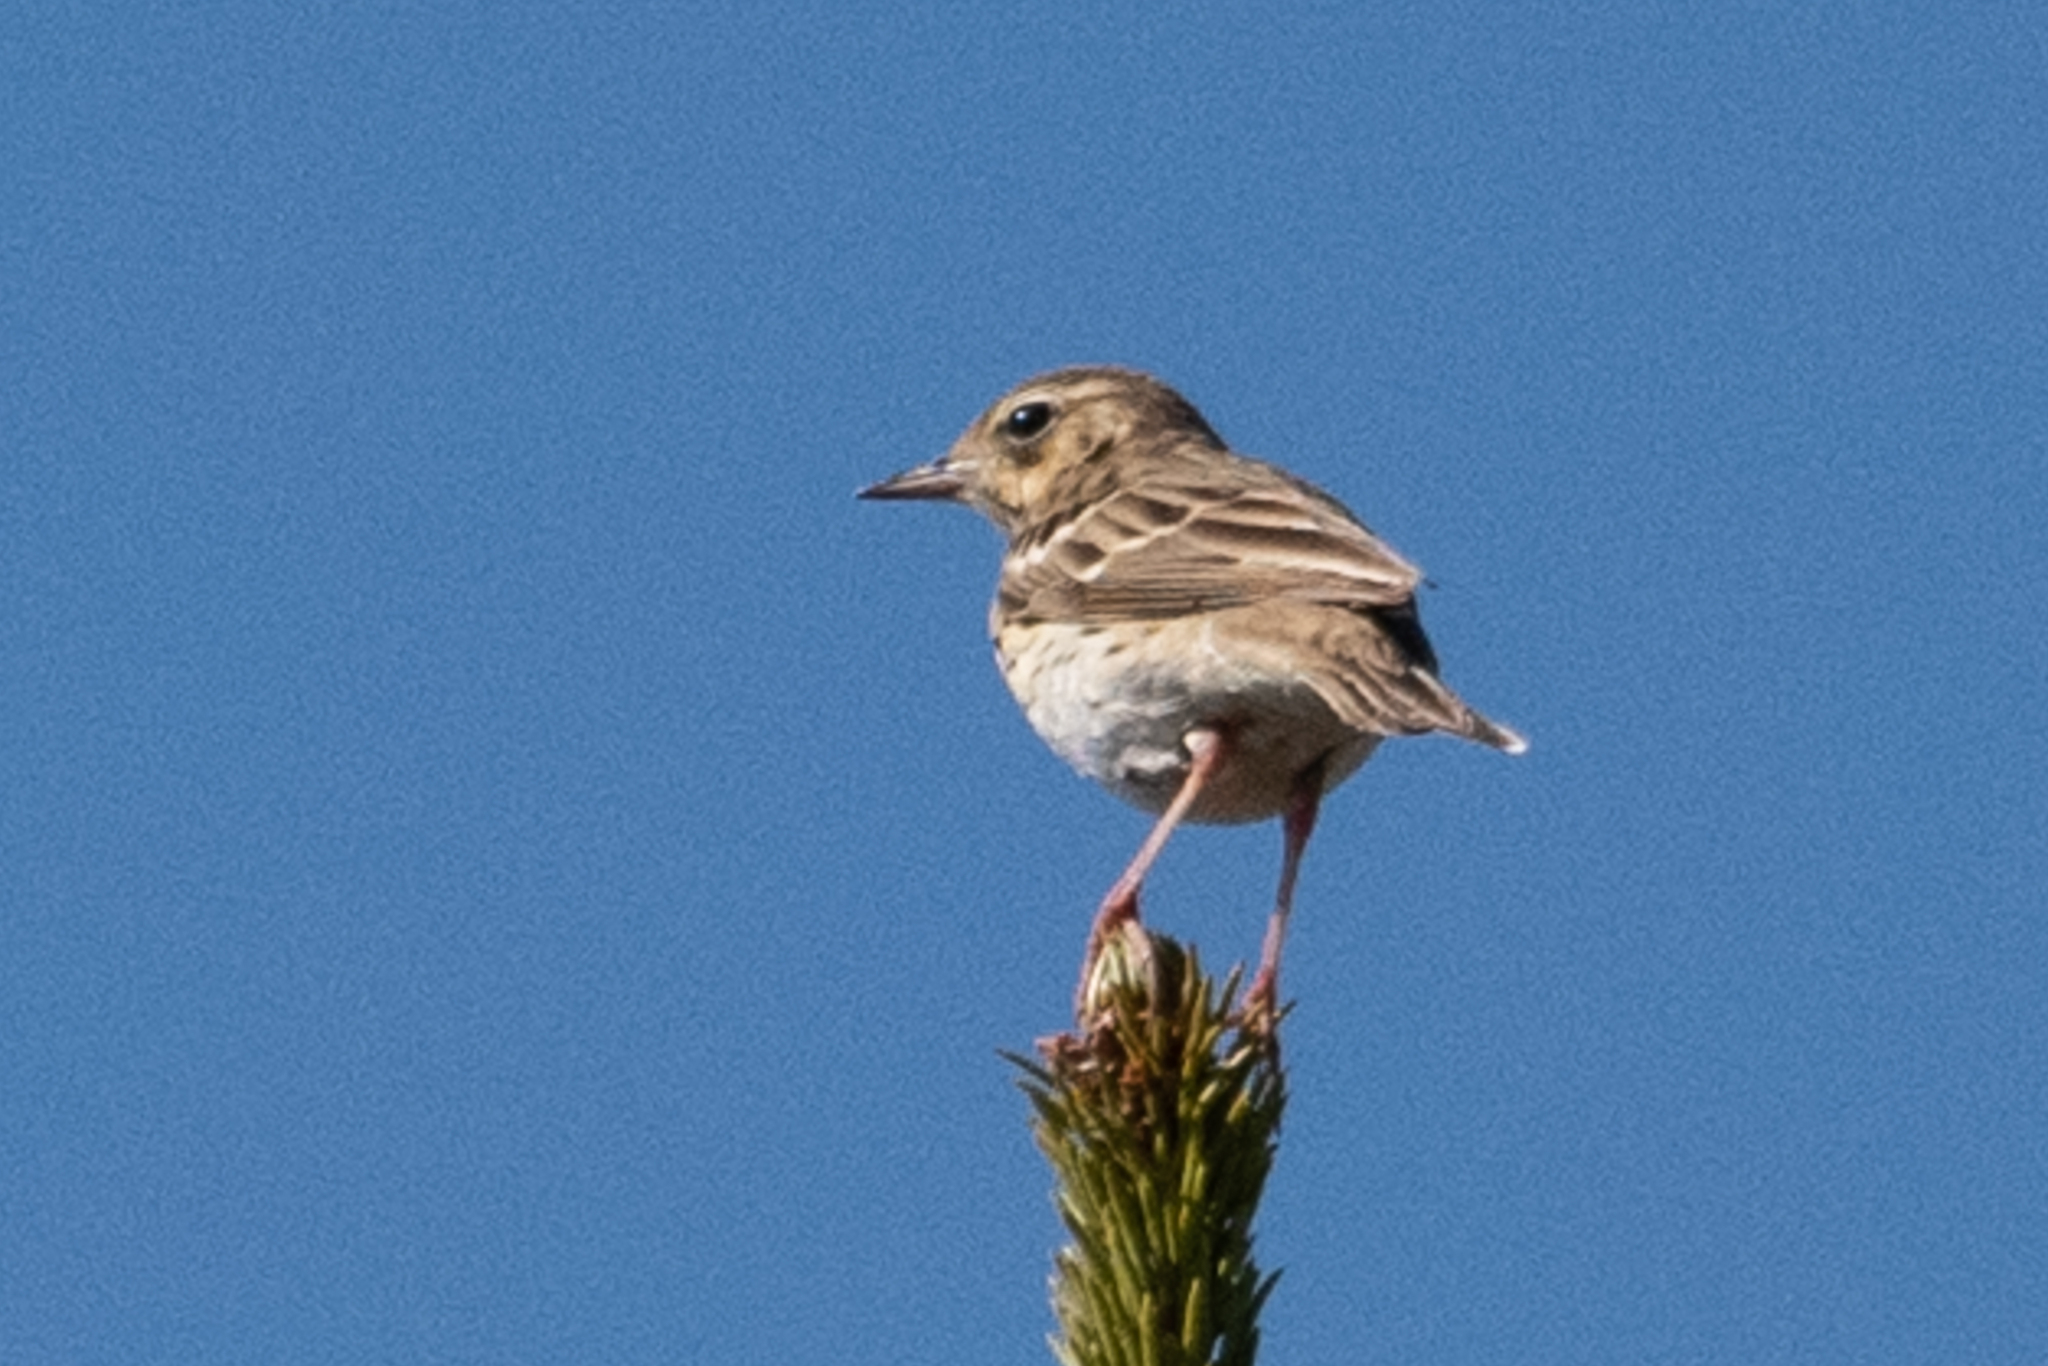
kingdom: Animalia
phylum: Chordata
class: Aves
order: Passeriformes
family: Motacillidae
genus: Anthus
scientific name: Anthus trivialis
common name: Tree pipit
